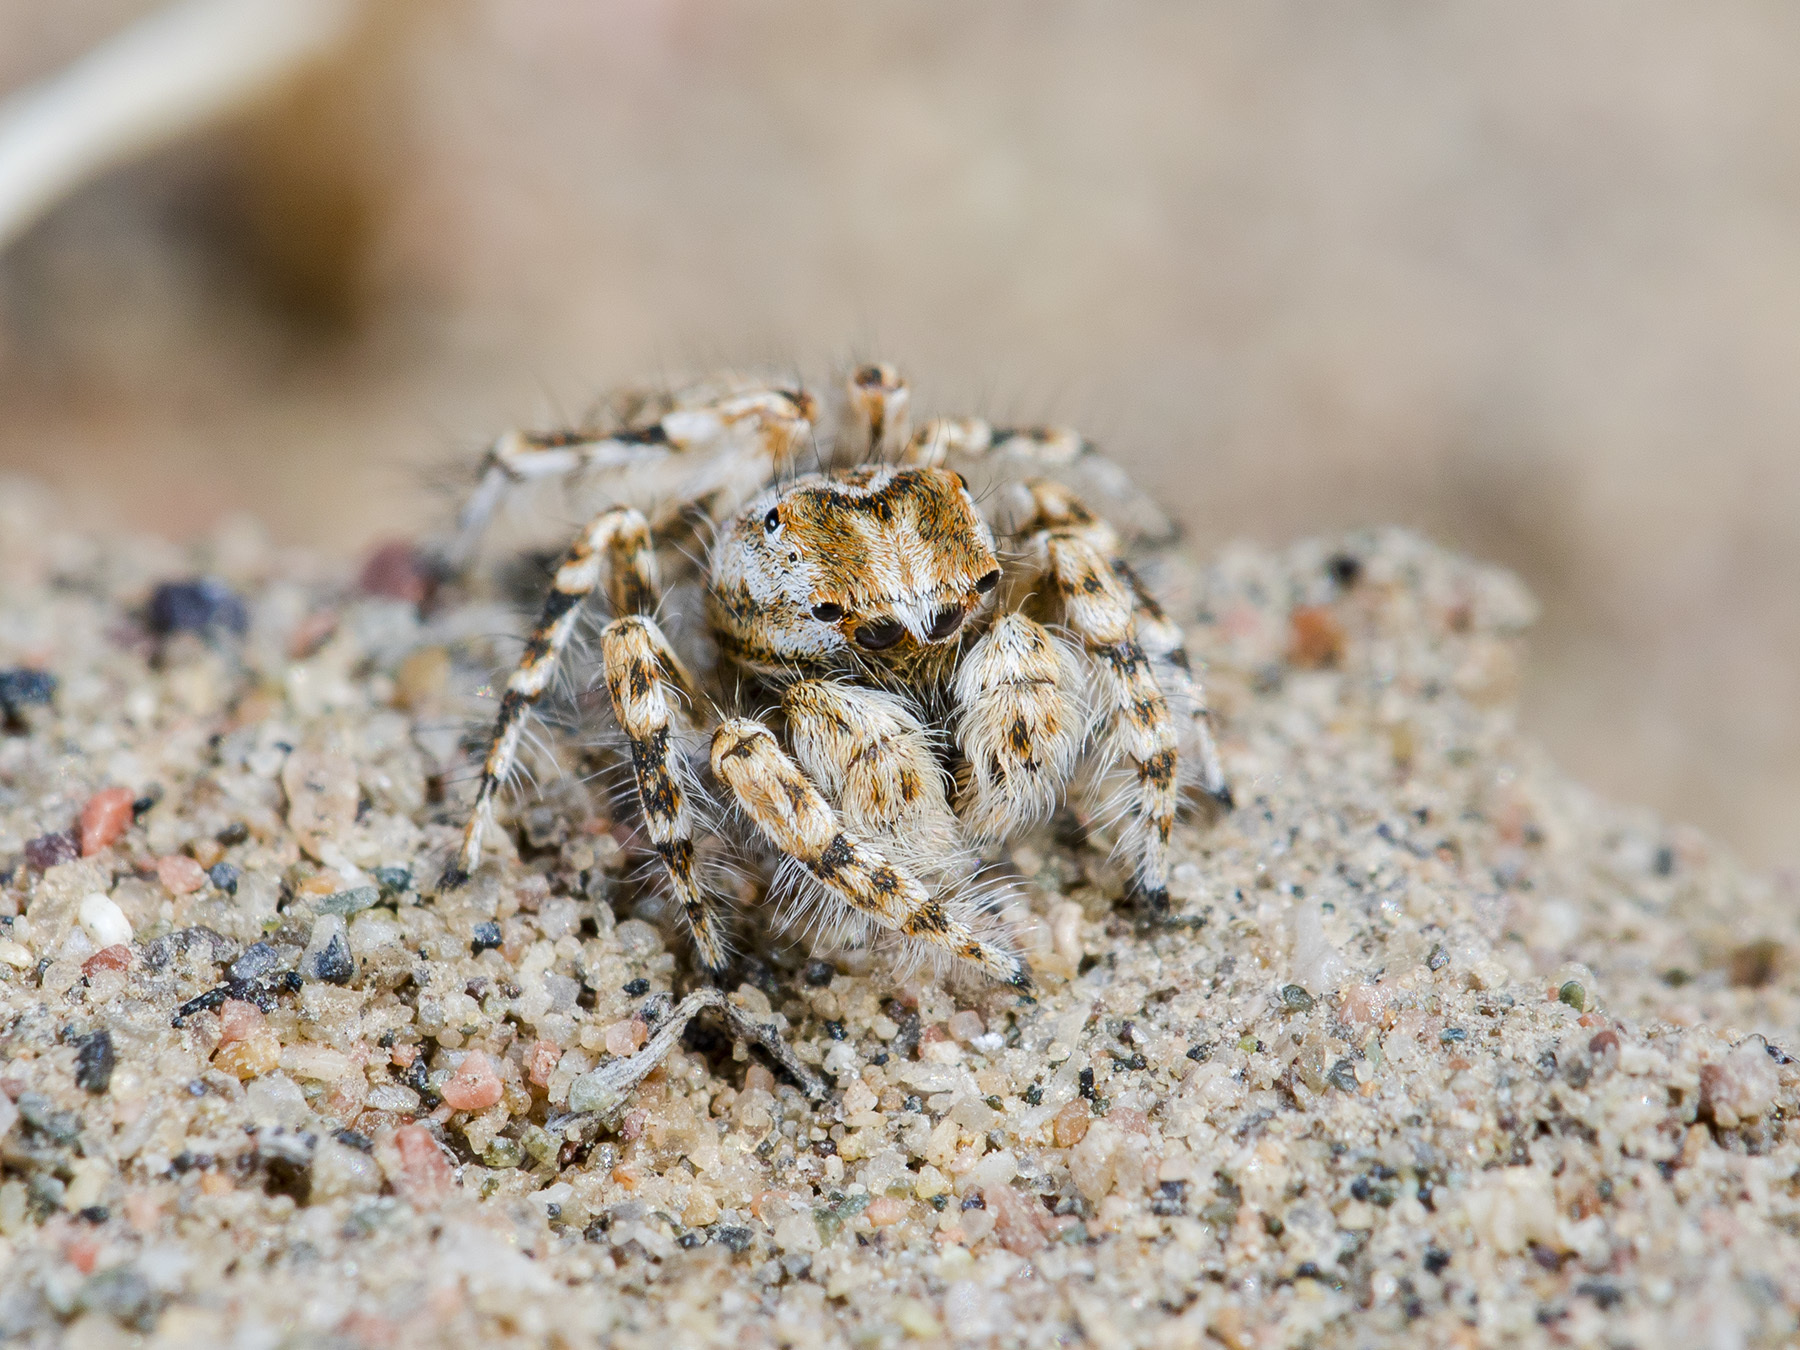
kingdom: Animalia
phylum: Arthropoda
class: Arachnida
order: Araneae
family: Salticidae
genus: Yllenus
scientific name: Yllenus turkestanicus
